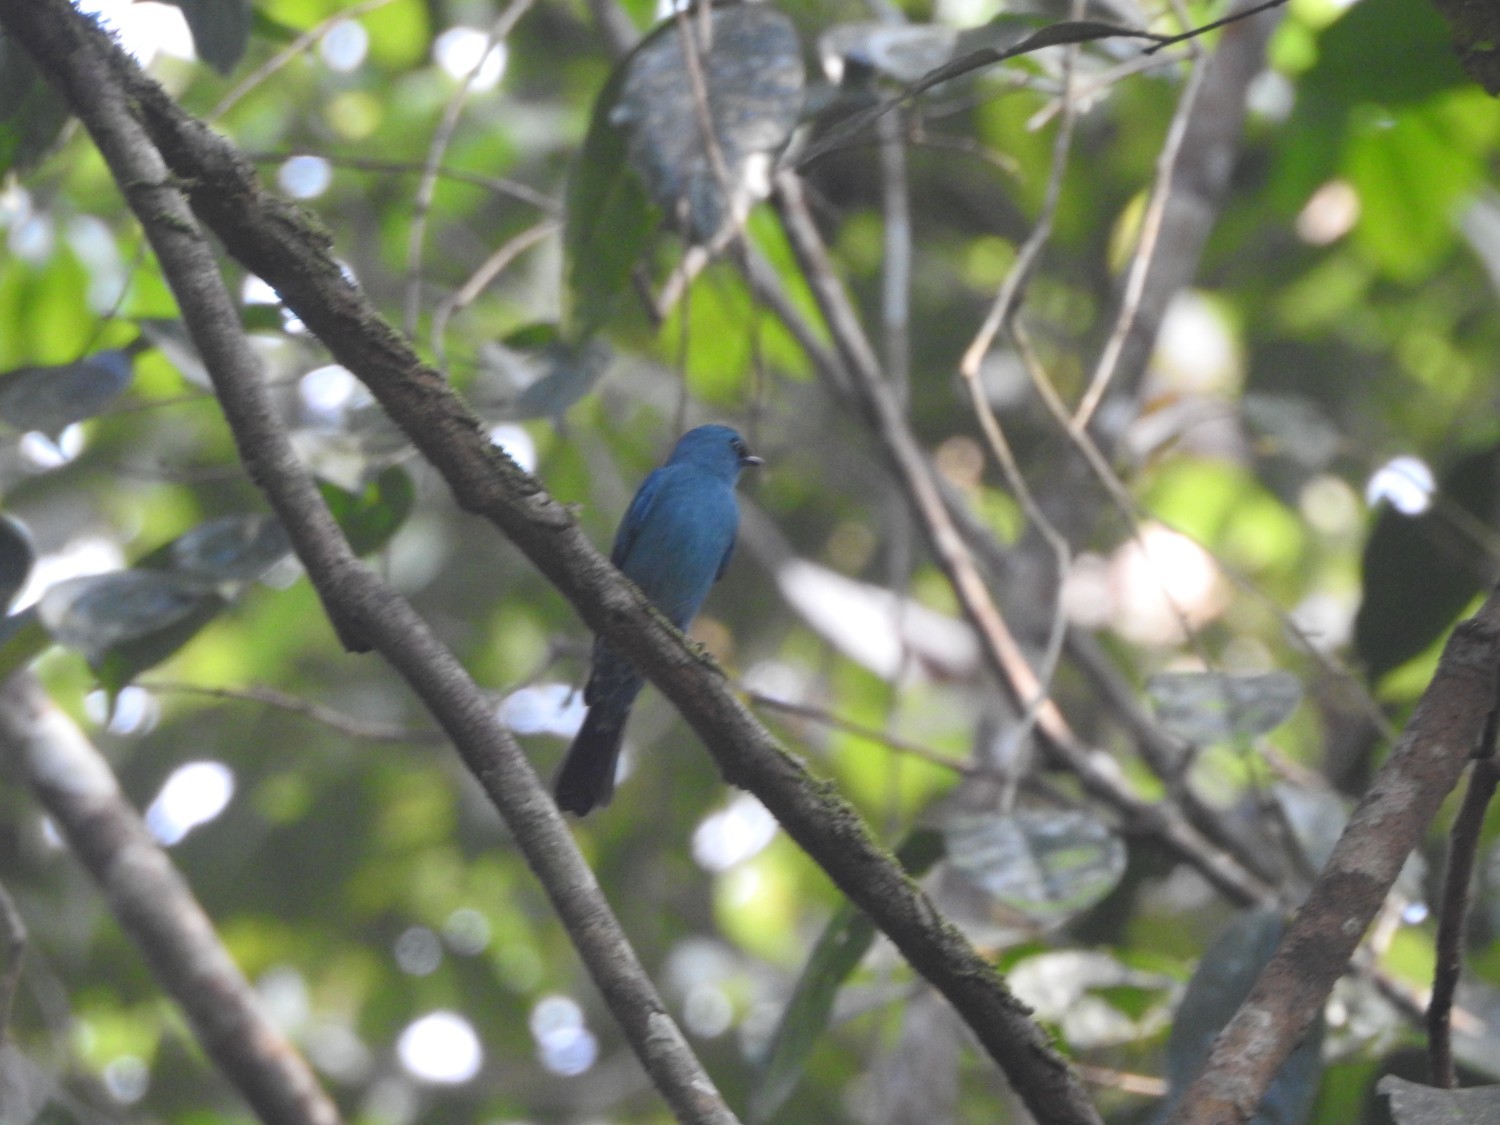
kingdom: Animalia
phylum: Chordata
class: Aves
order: Passeriformes
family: Muscicapidae
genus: Eumyias
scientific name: Eumyias thalassinus
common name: Verditer flycatcher
